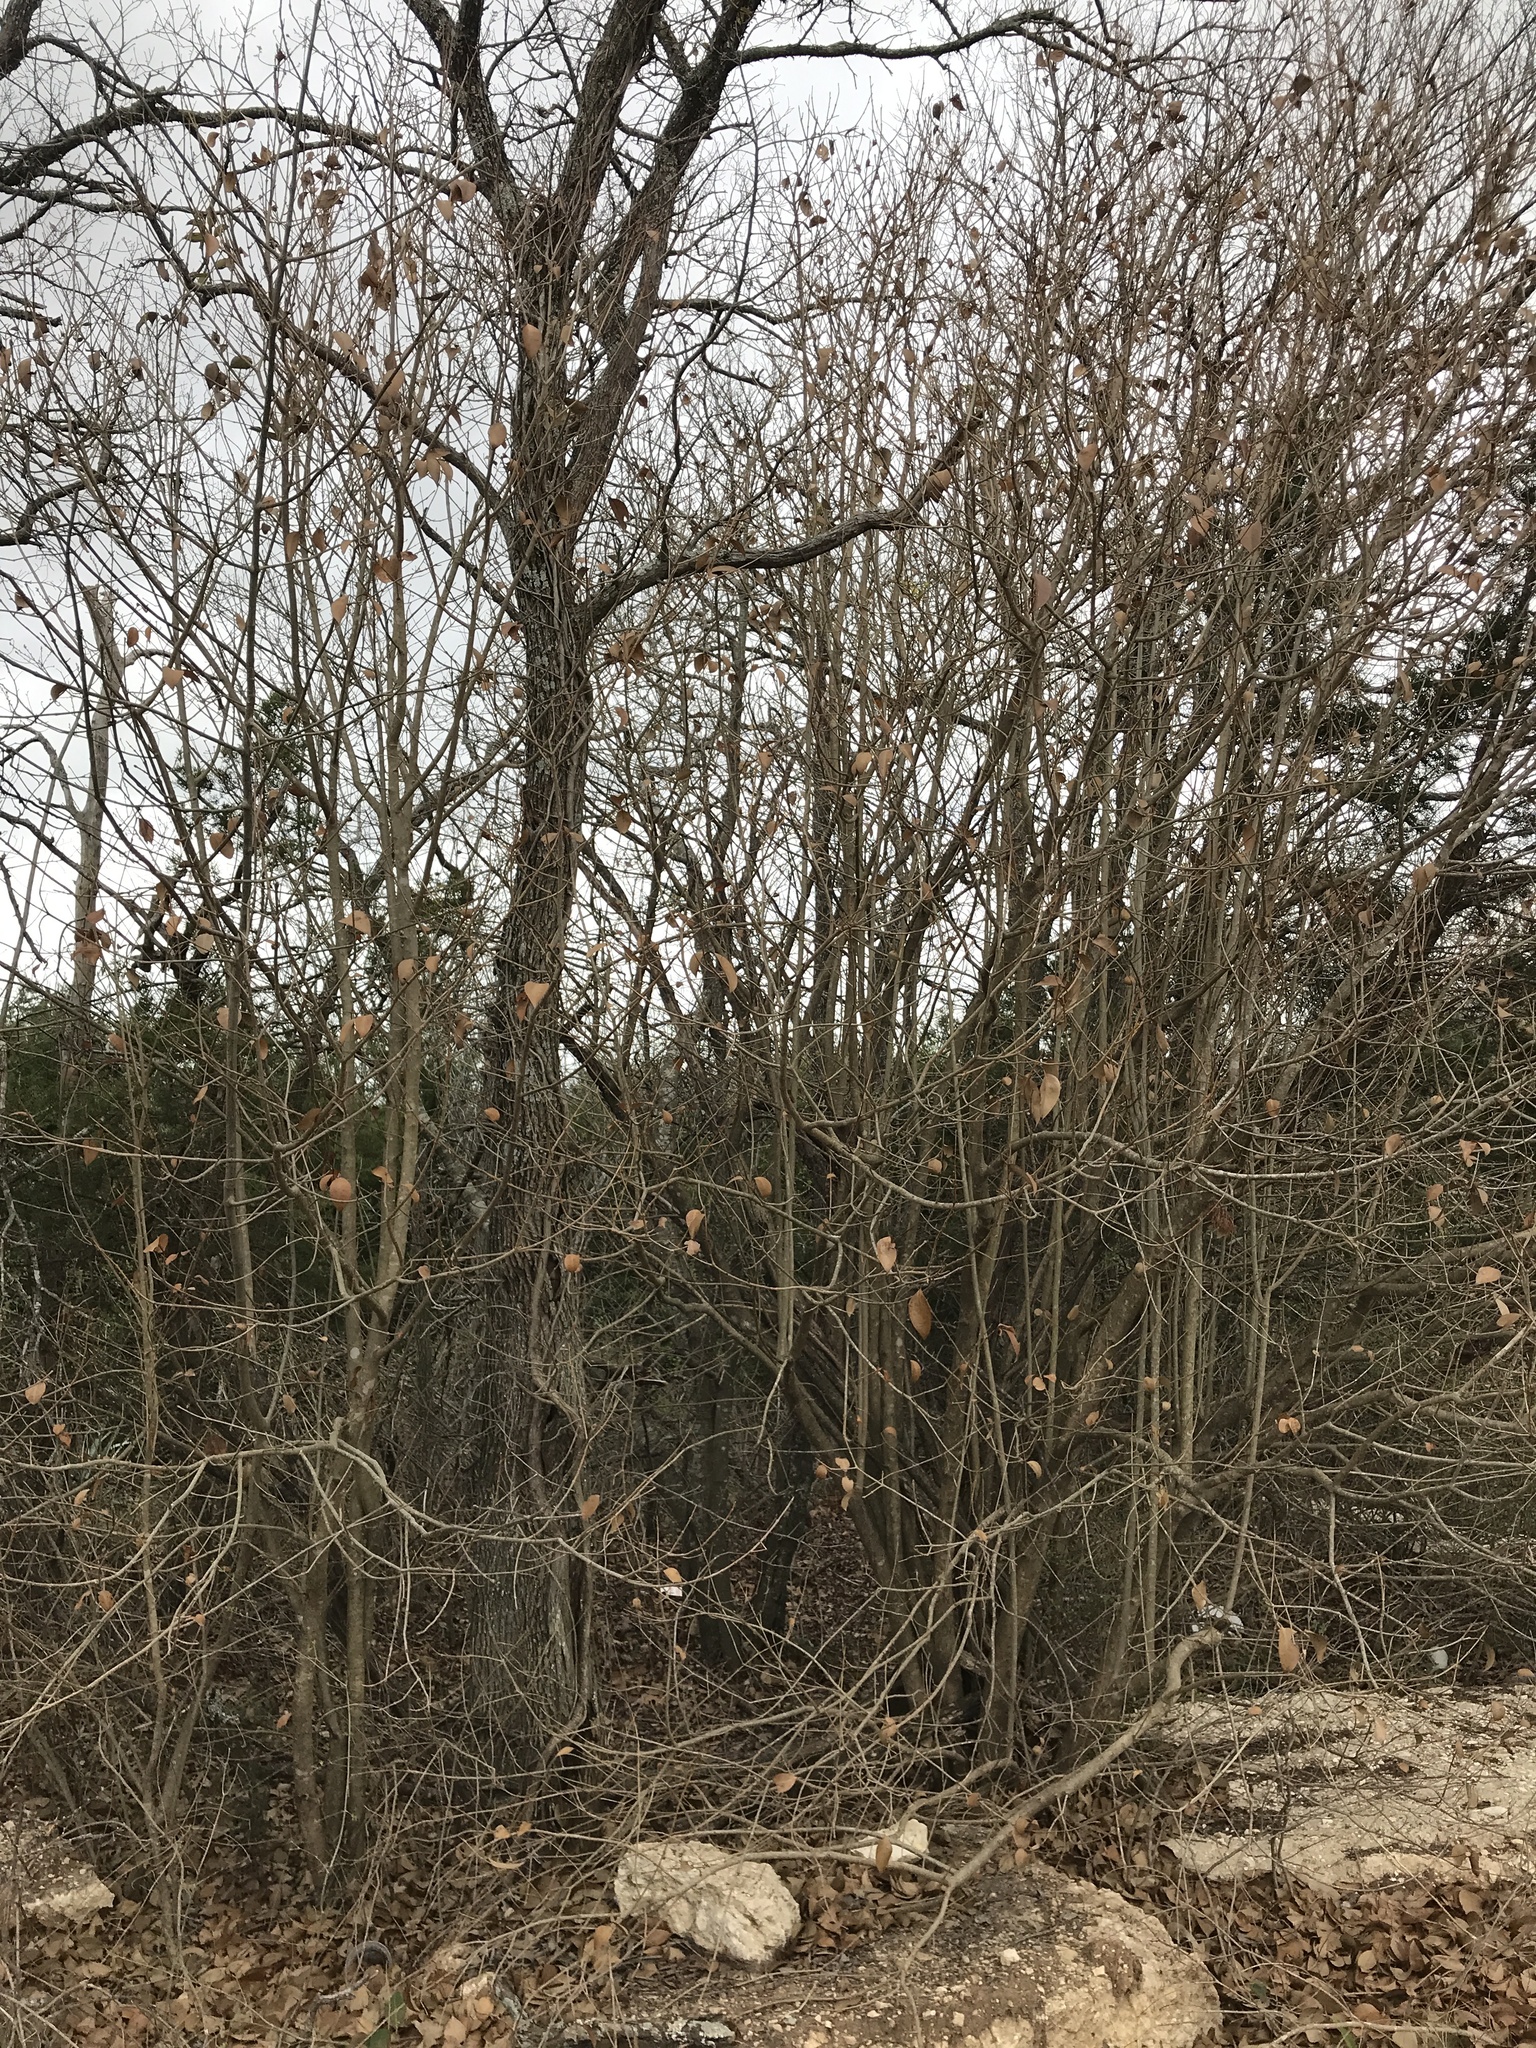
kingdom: Plantae
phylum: Tracheophyta
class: Magnoliopsida
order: Lamiales
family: Oleaceae
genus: Ligustrum
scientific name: Ligustrum lucidum
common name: Glossy privet
